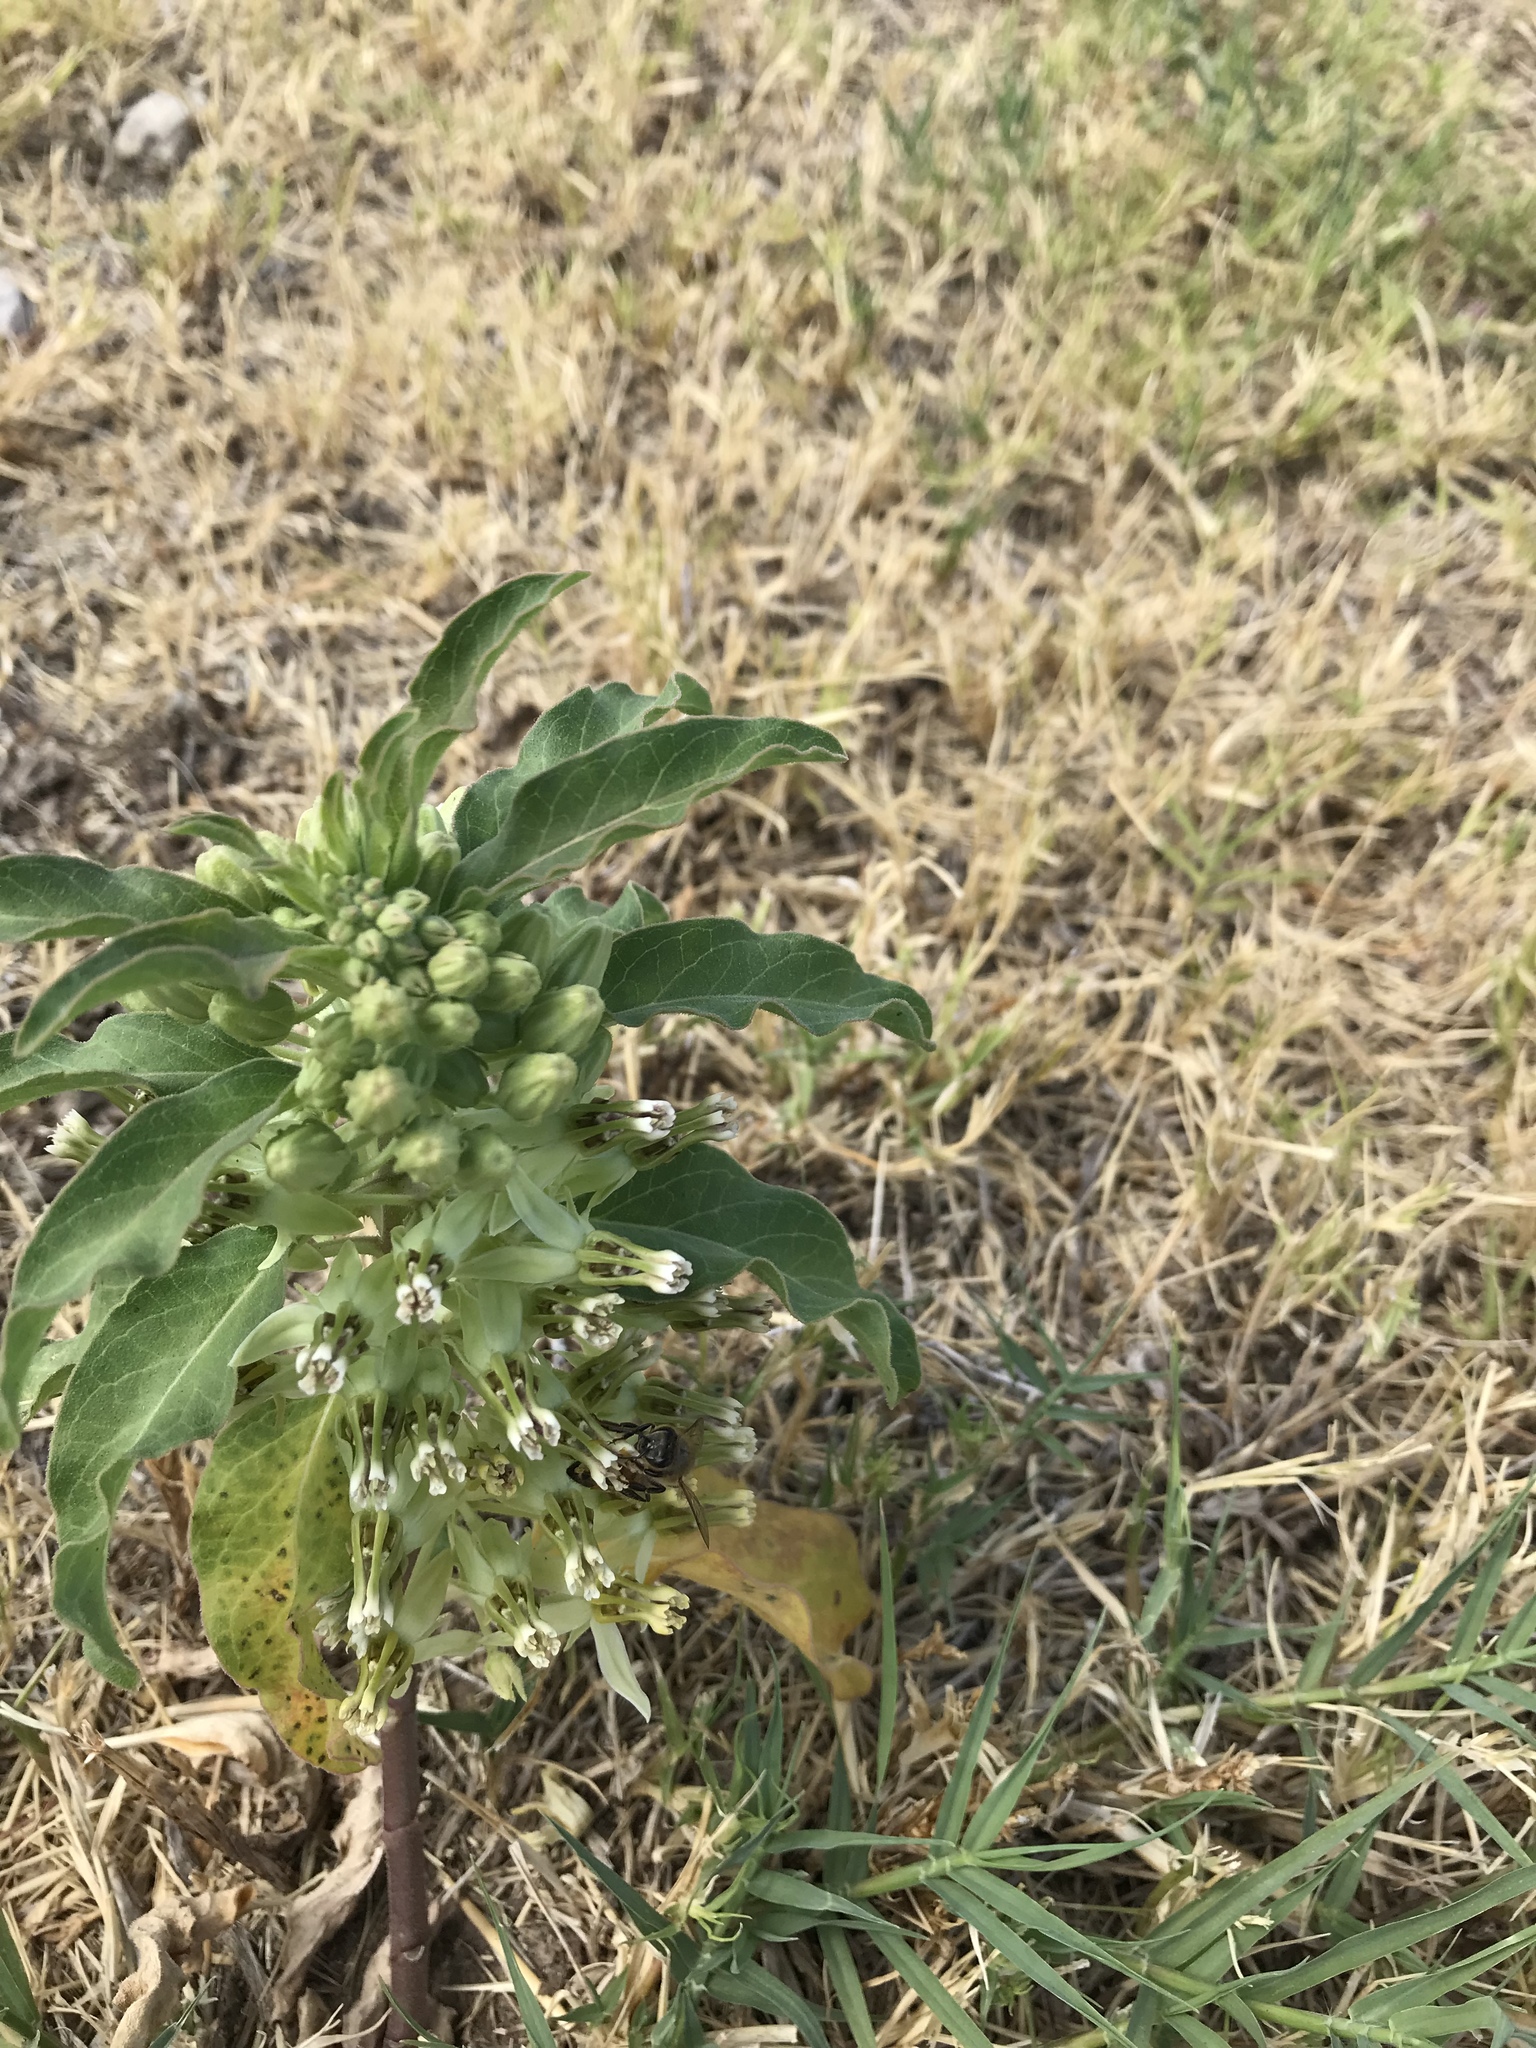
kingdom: Plantae
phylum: Tracheophyta
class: Magnoliopsida
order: Gentianales
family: Apocynaceae
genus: Asclepias
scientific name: Asclepias oenotheroides
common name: Zizotes milkweed
